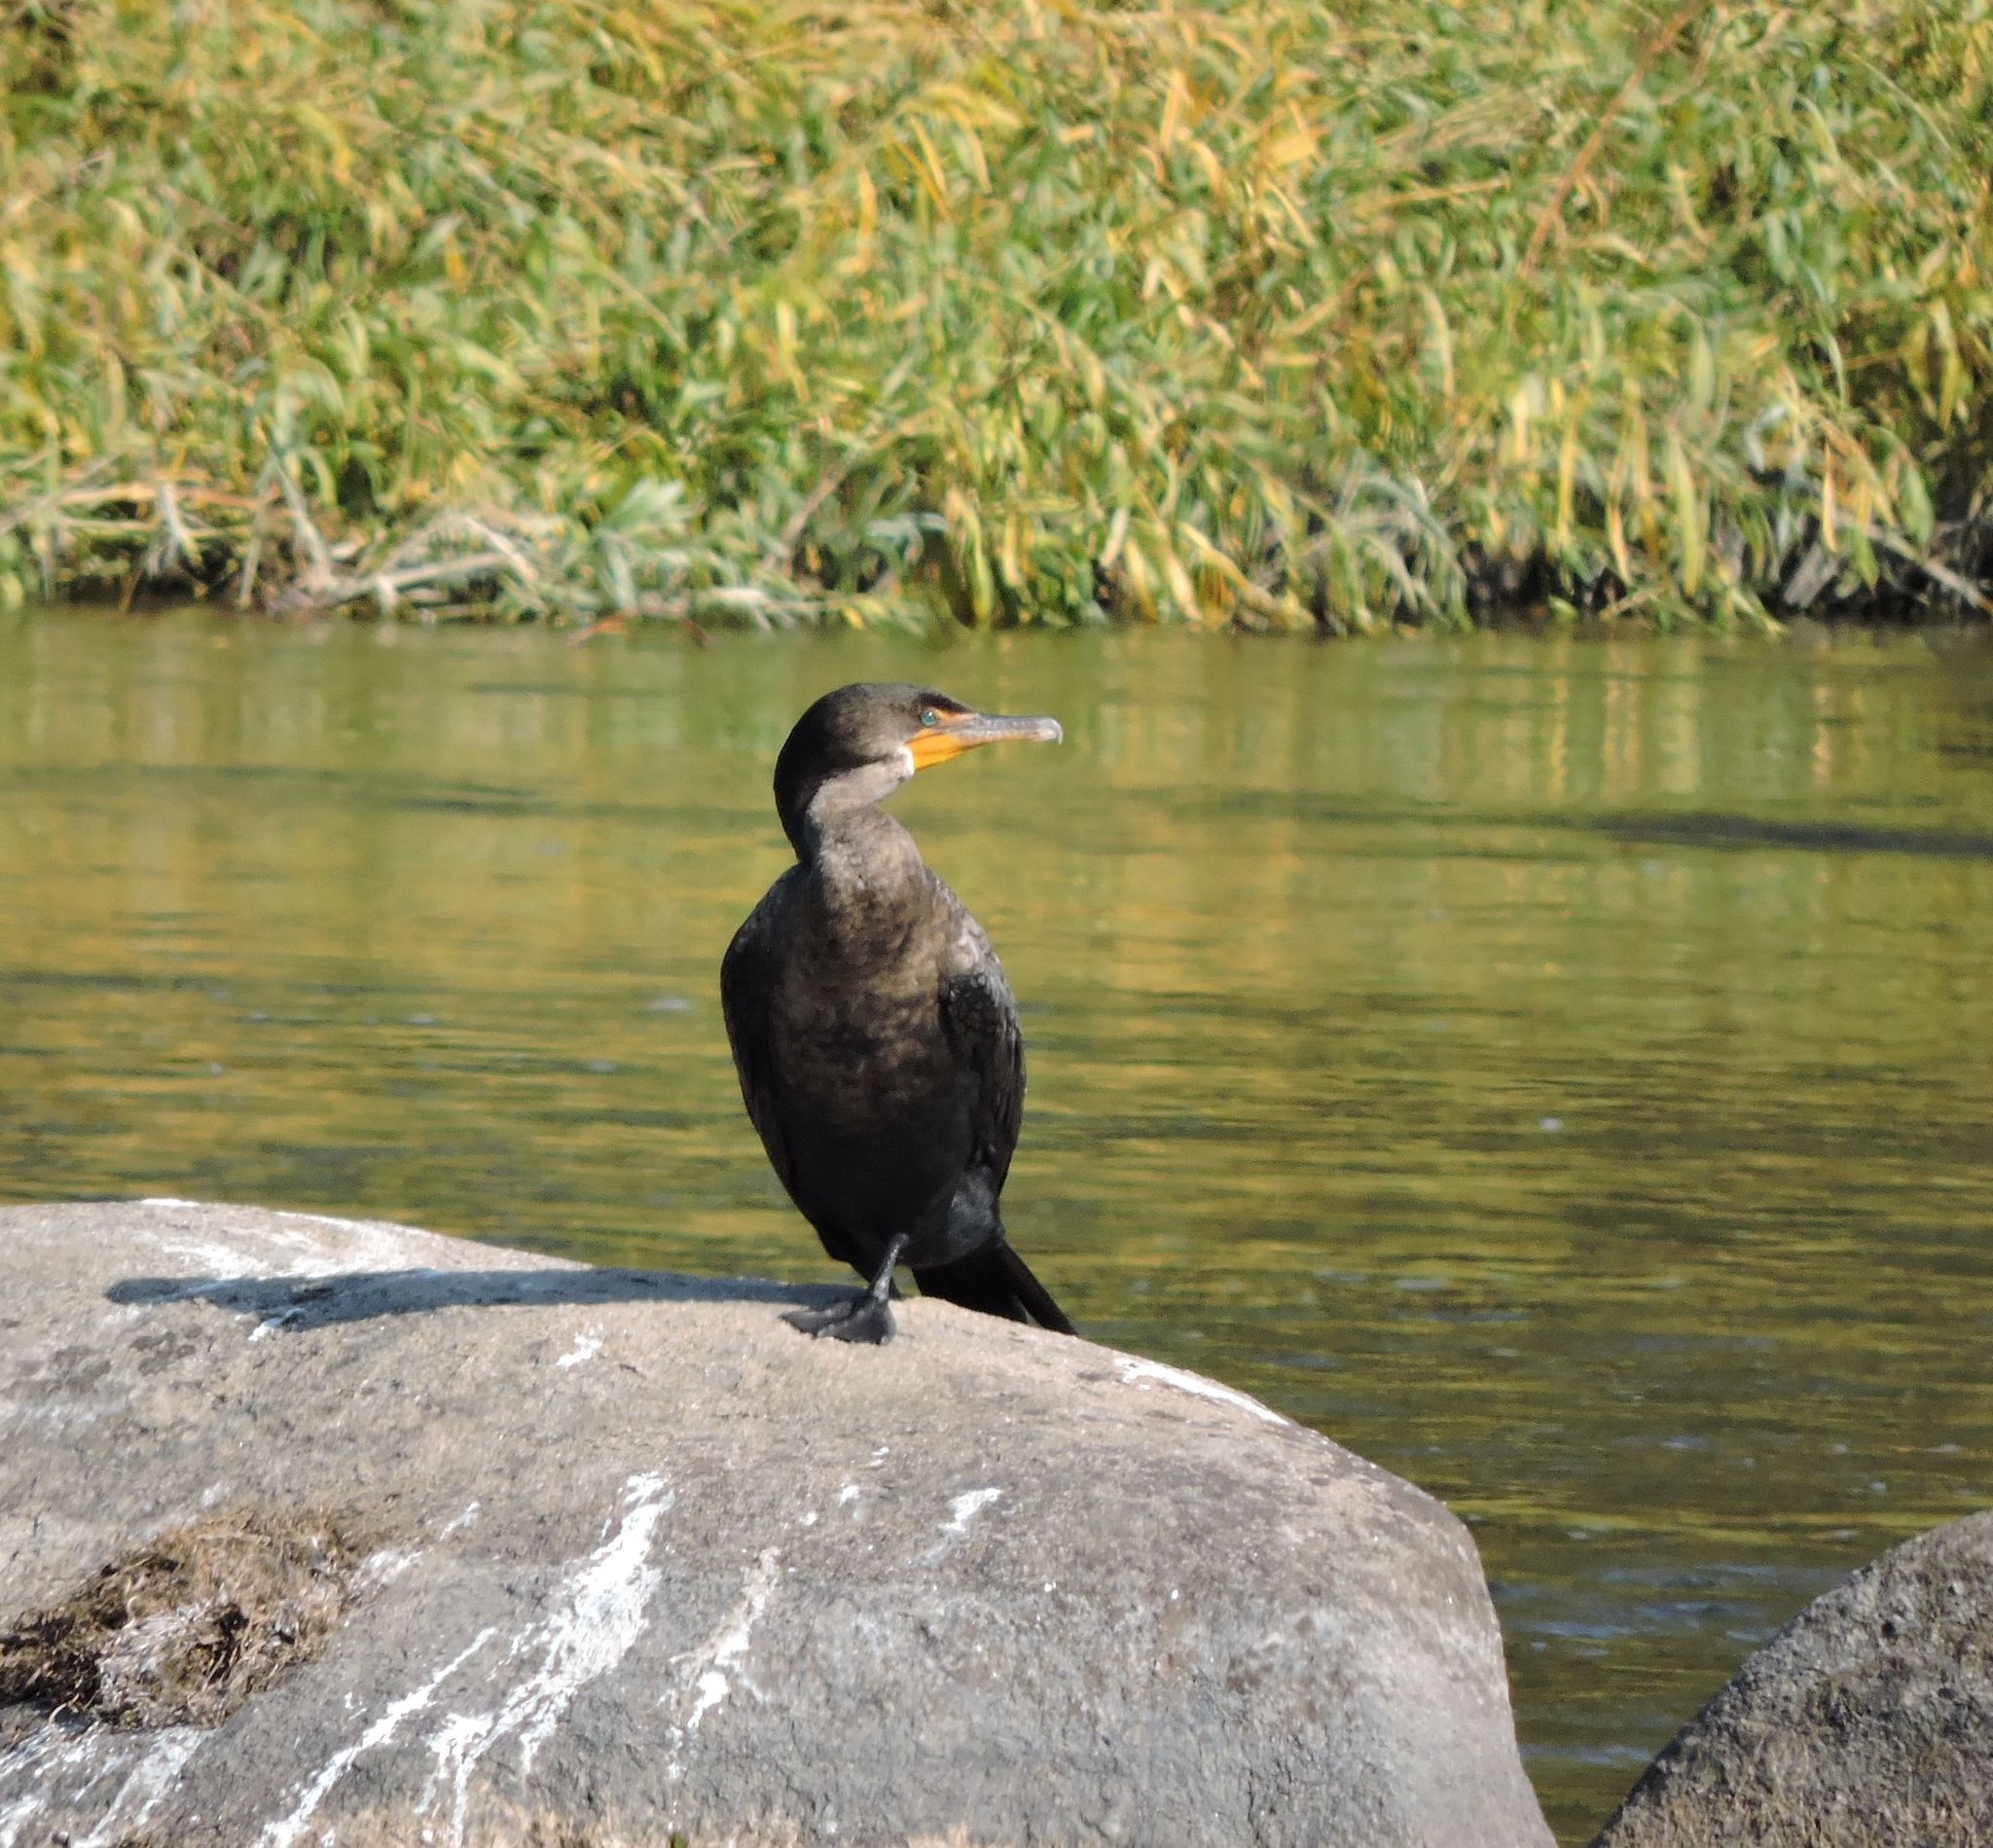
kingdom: Animalia
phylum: Chordata
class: Aves
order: Suliformes
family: Phalacrocoracidae
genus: Phalacrocorax
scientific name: Phalacrocorax auritus
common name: Double-crested cormorant
